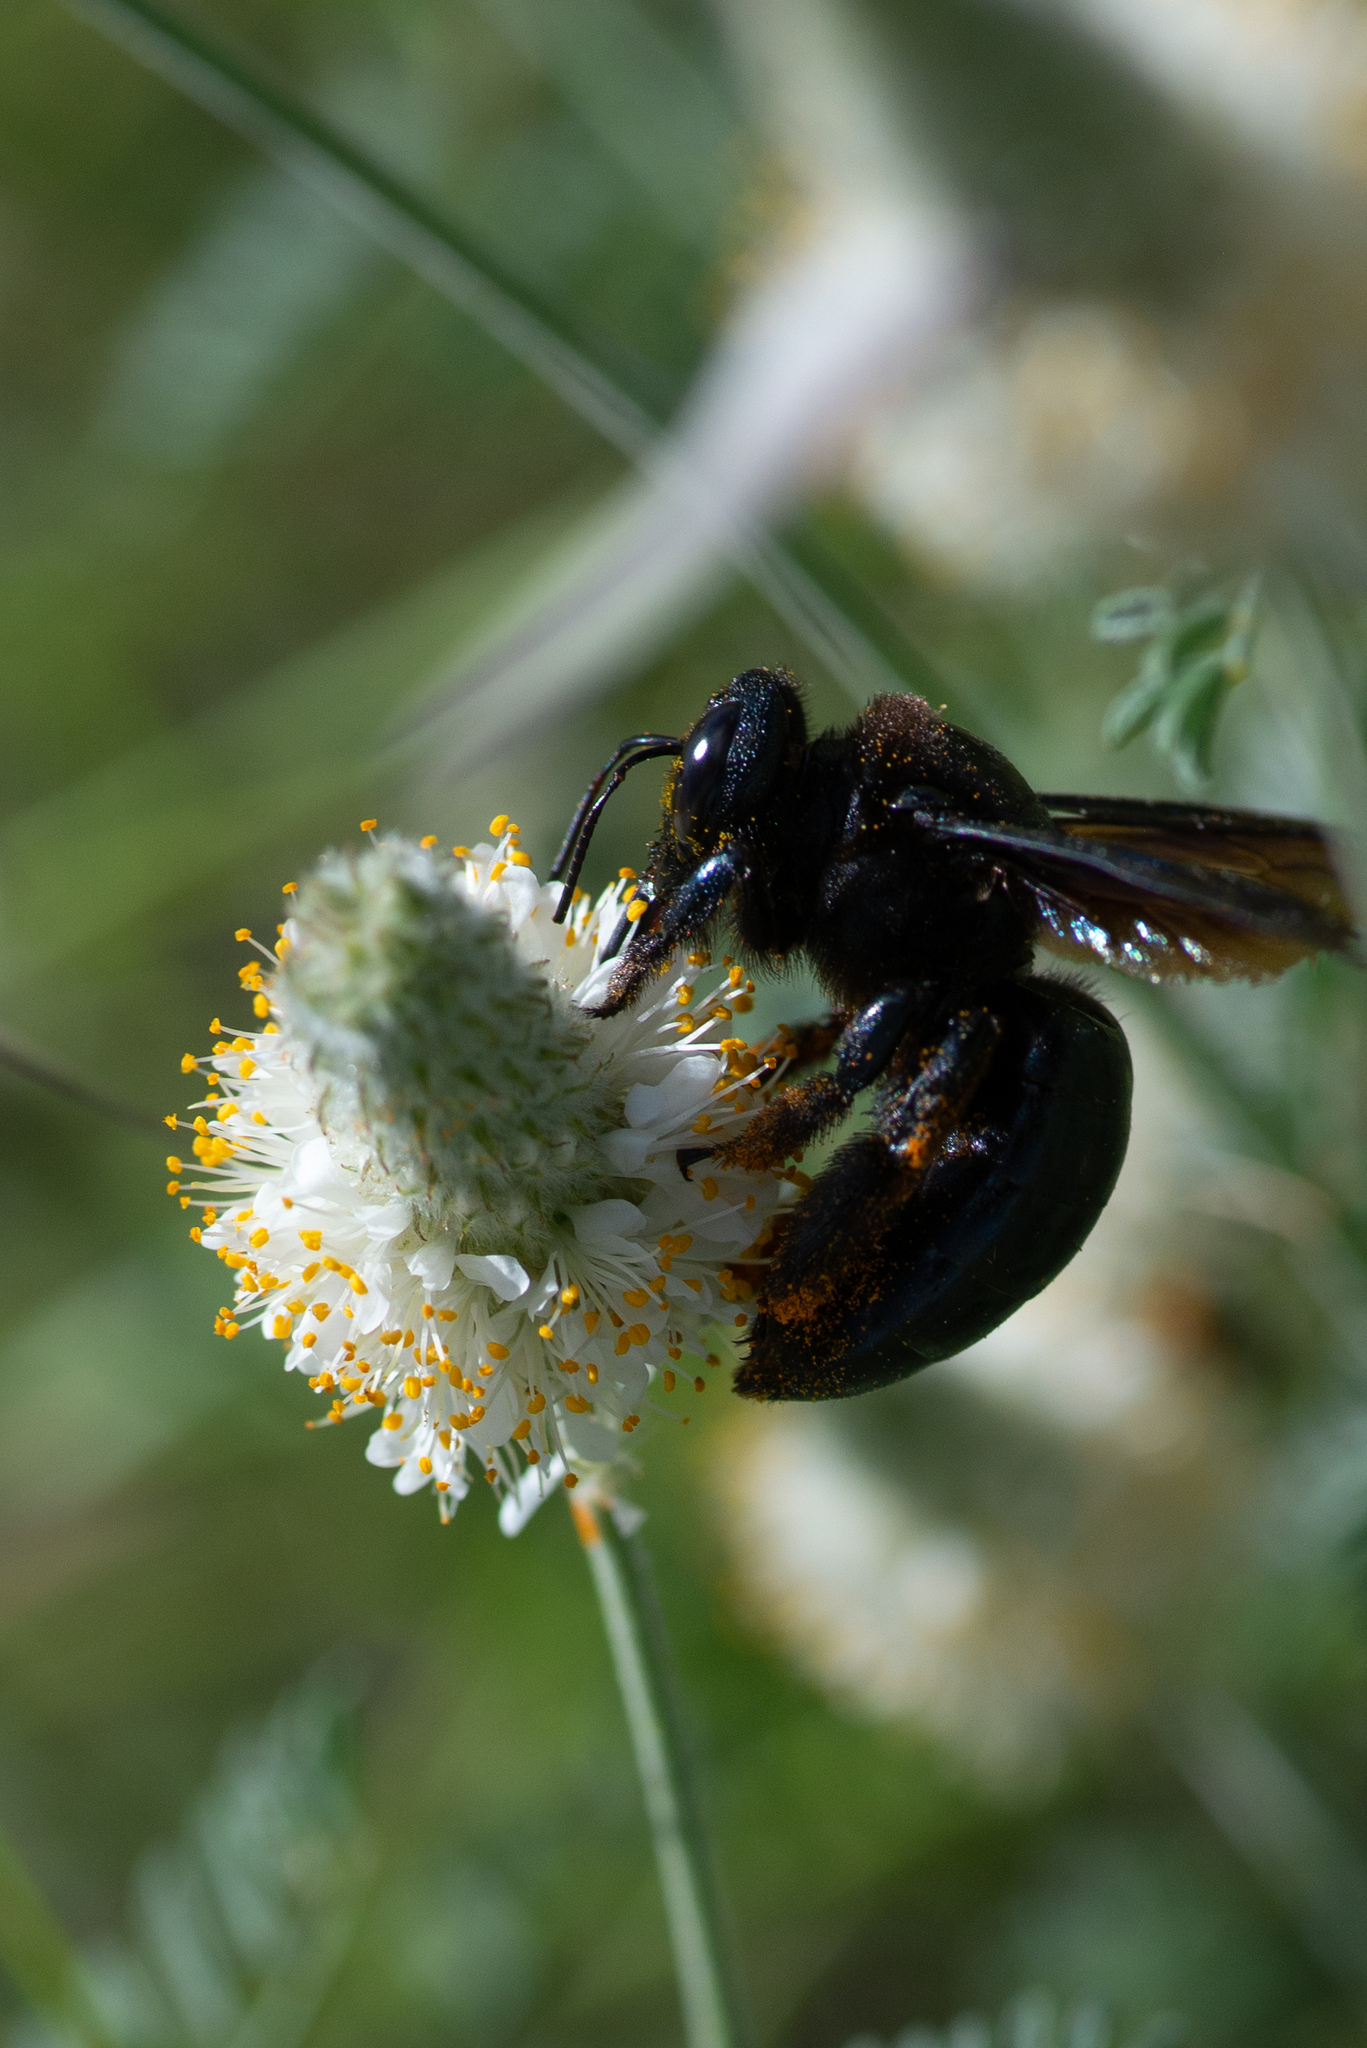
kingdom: Animalia
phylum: Arthropoda
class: Insecta
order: Hymenoptera
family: Apidae
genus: Xylocopa
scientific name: Xylocopa californica
